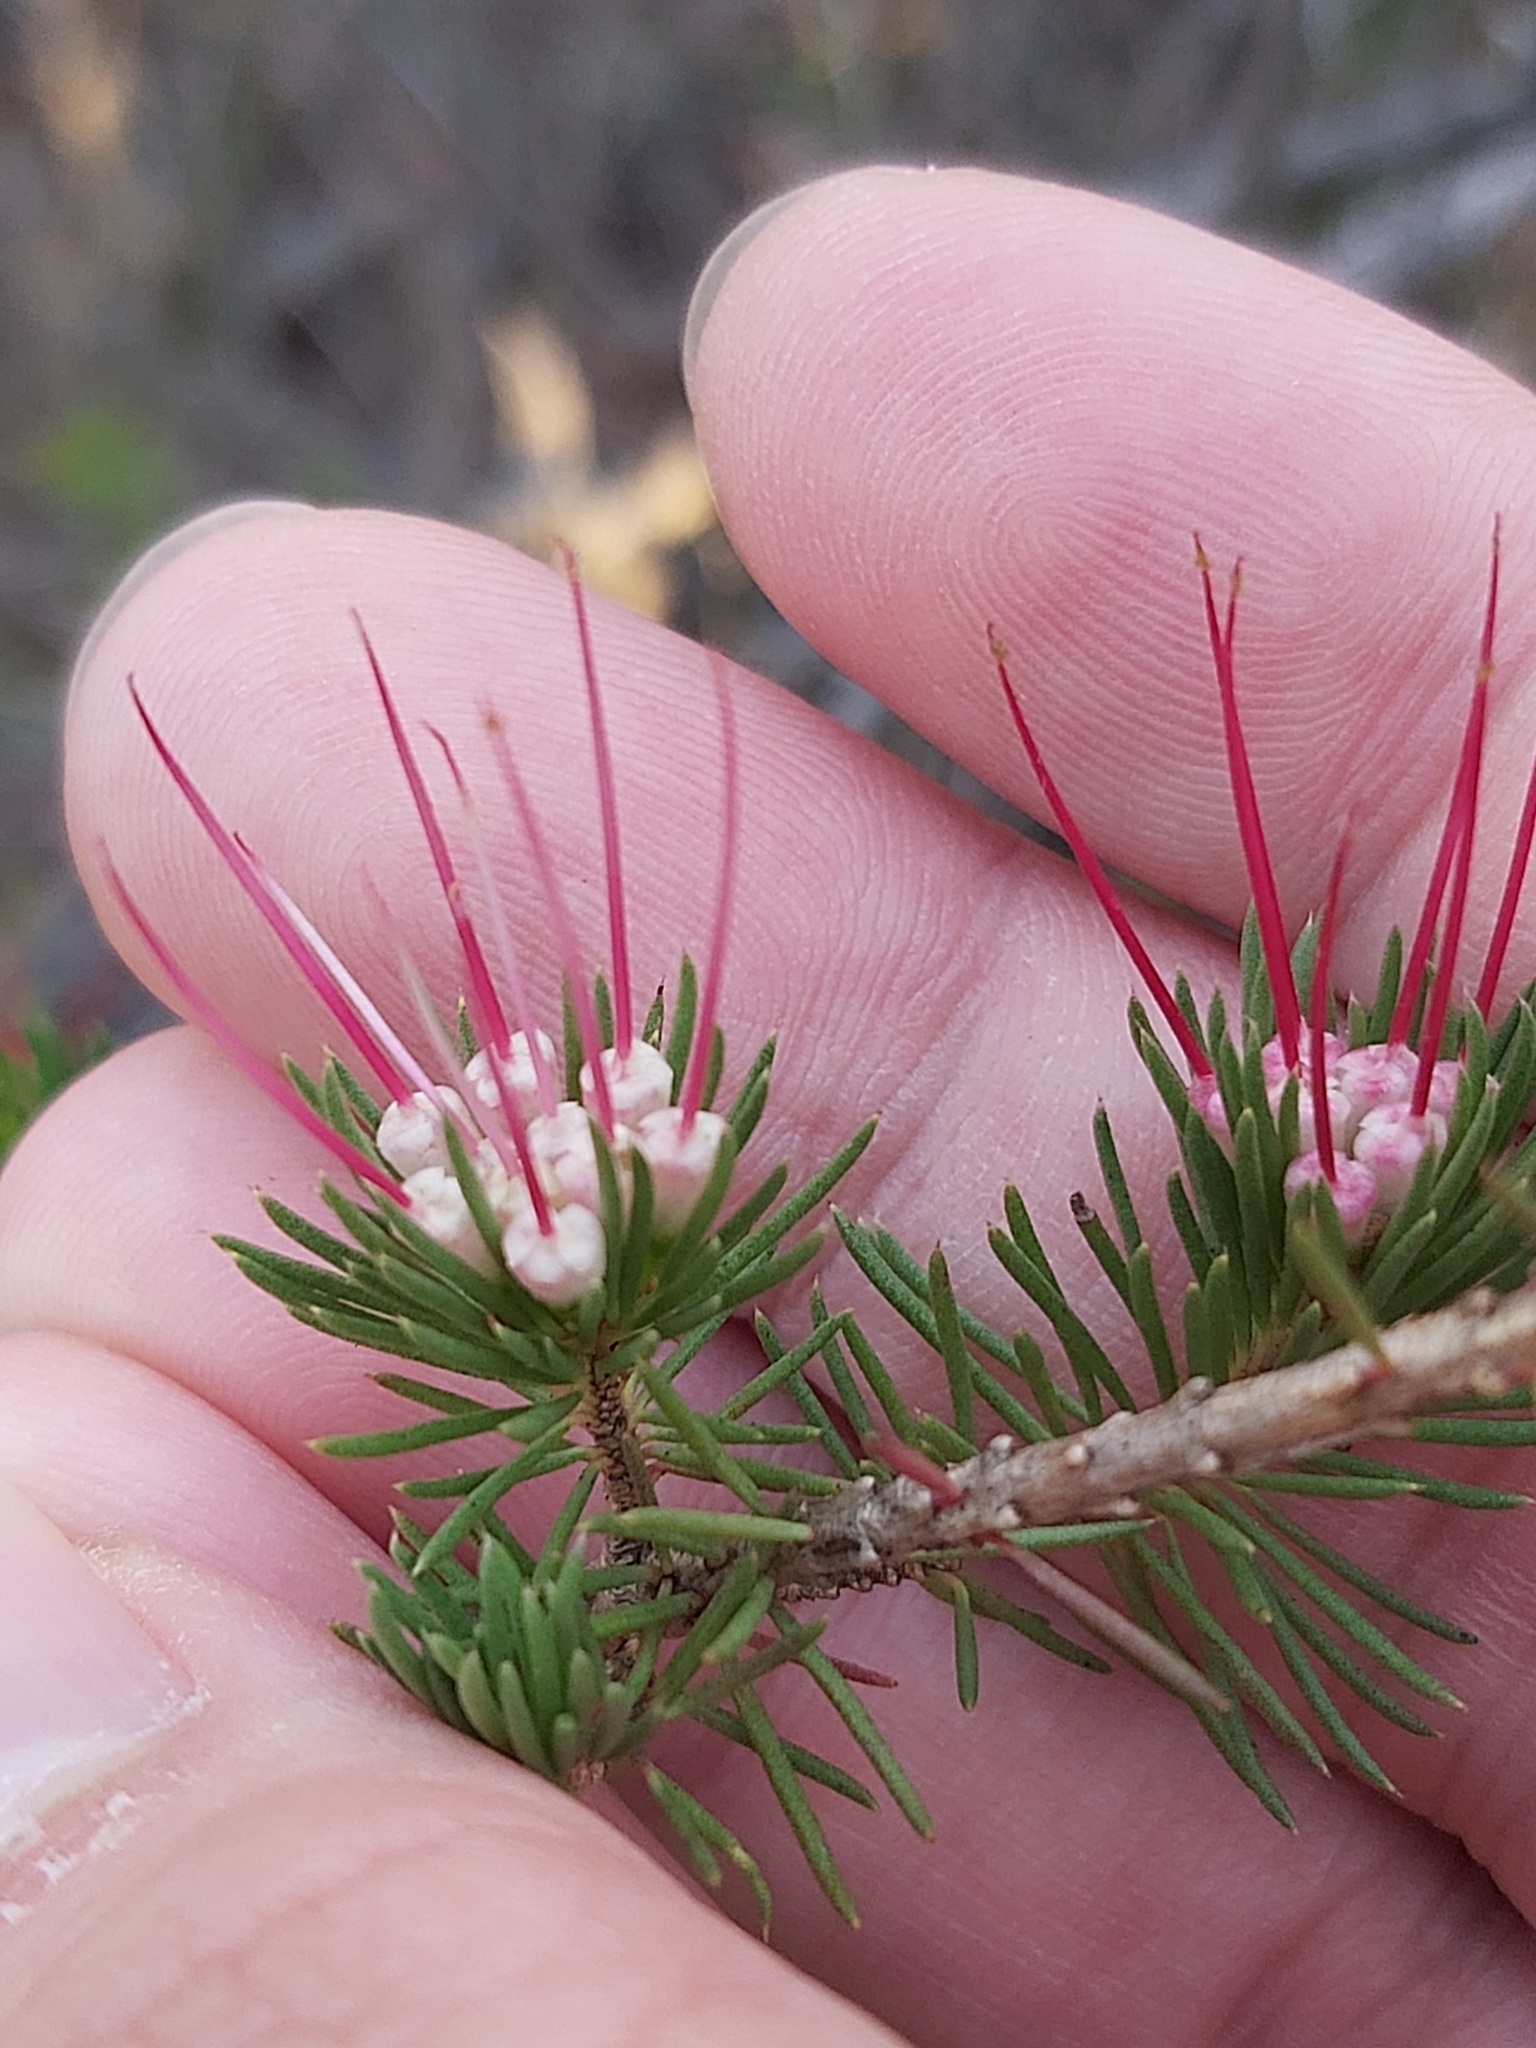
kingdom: Plantae
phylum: Tracheophyta
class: Magnoliopsida
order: Myrtales
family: Myrtaceae
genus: Darwinia
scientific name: Darwinia fascicularis
